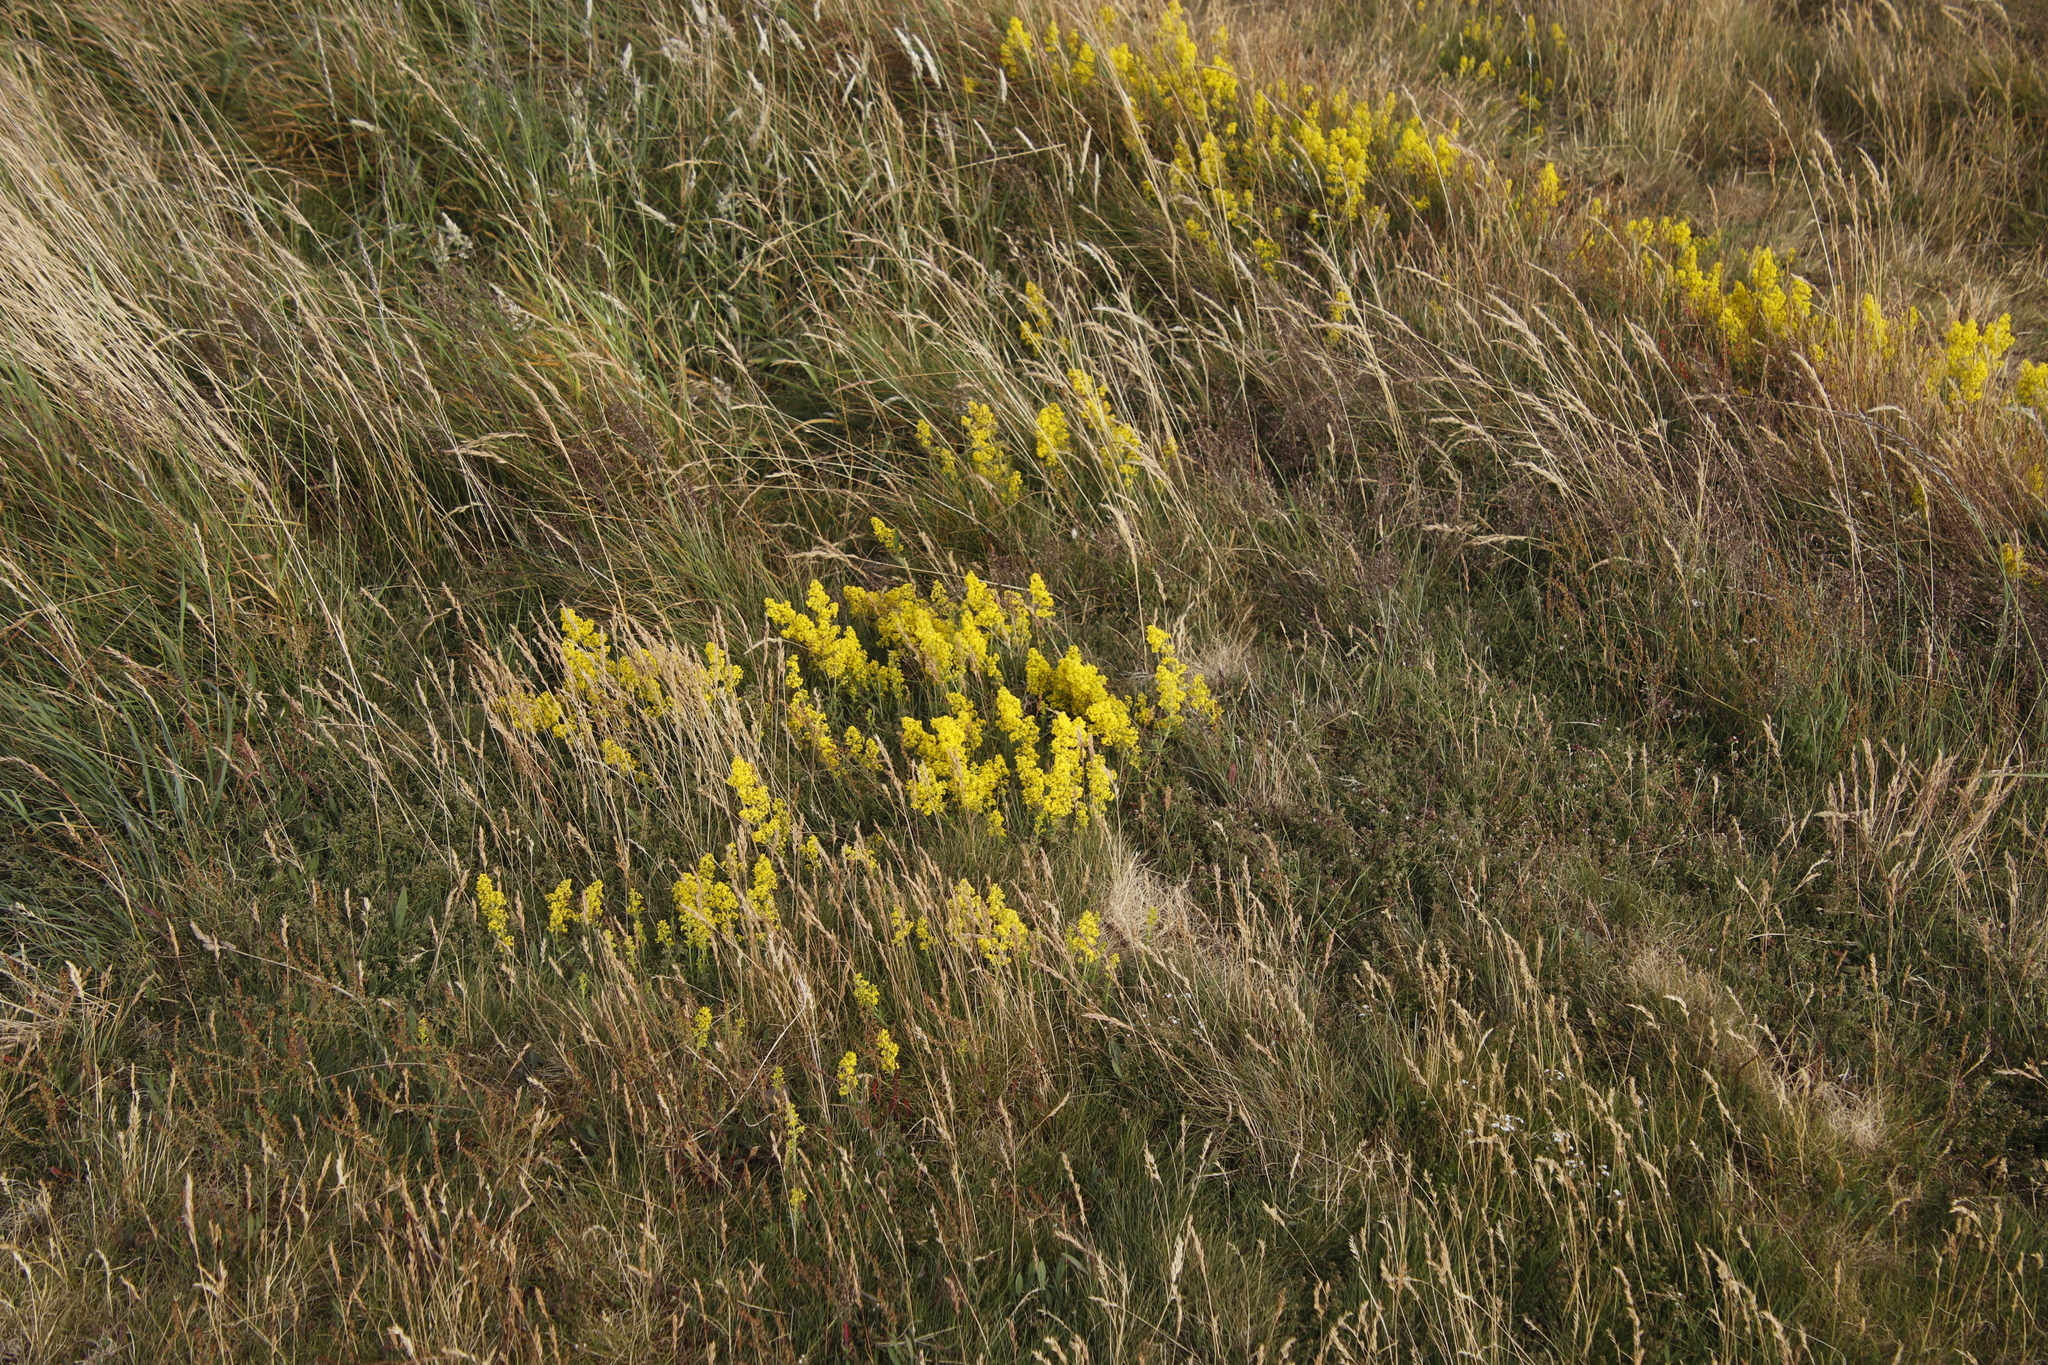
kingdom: Plantae
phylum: Tracheophyta
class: Magnoliopsida
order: Gentianales
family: Rubiaceae
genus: Galium
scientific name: Galium verum
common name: Lady's bedstraw
